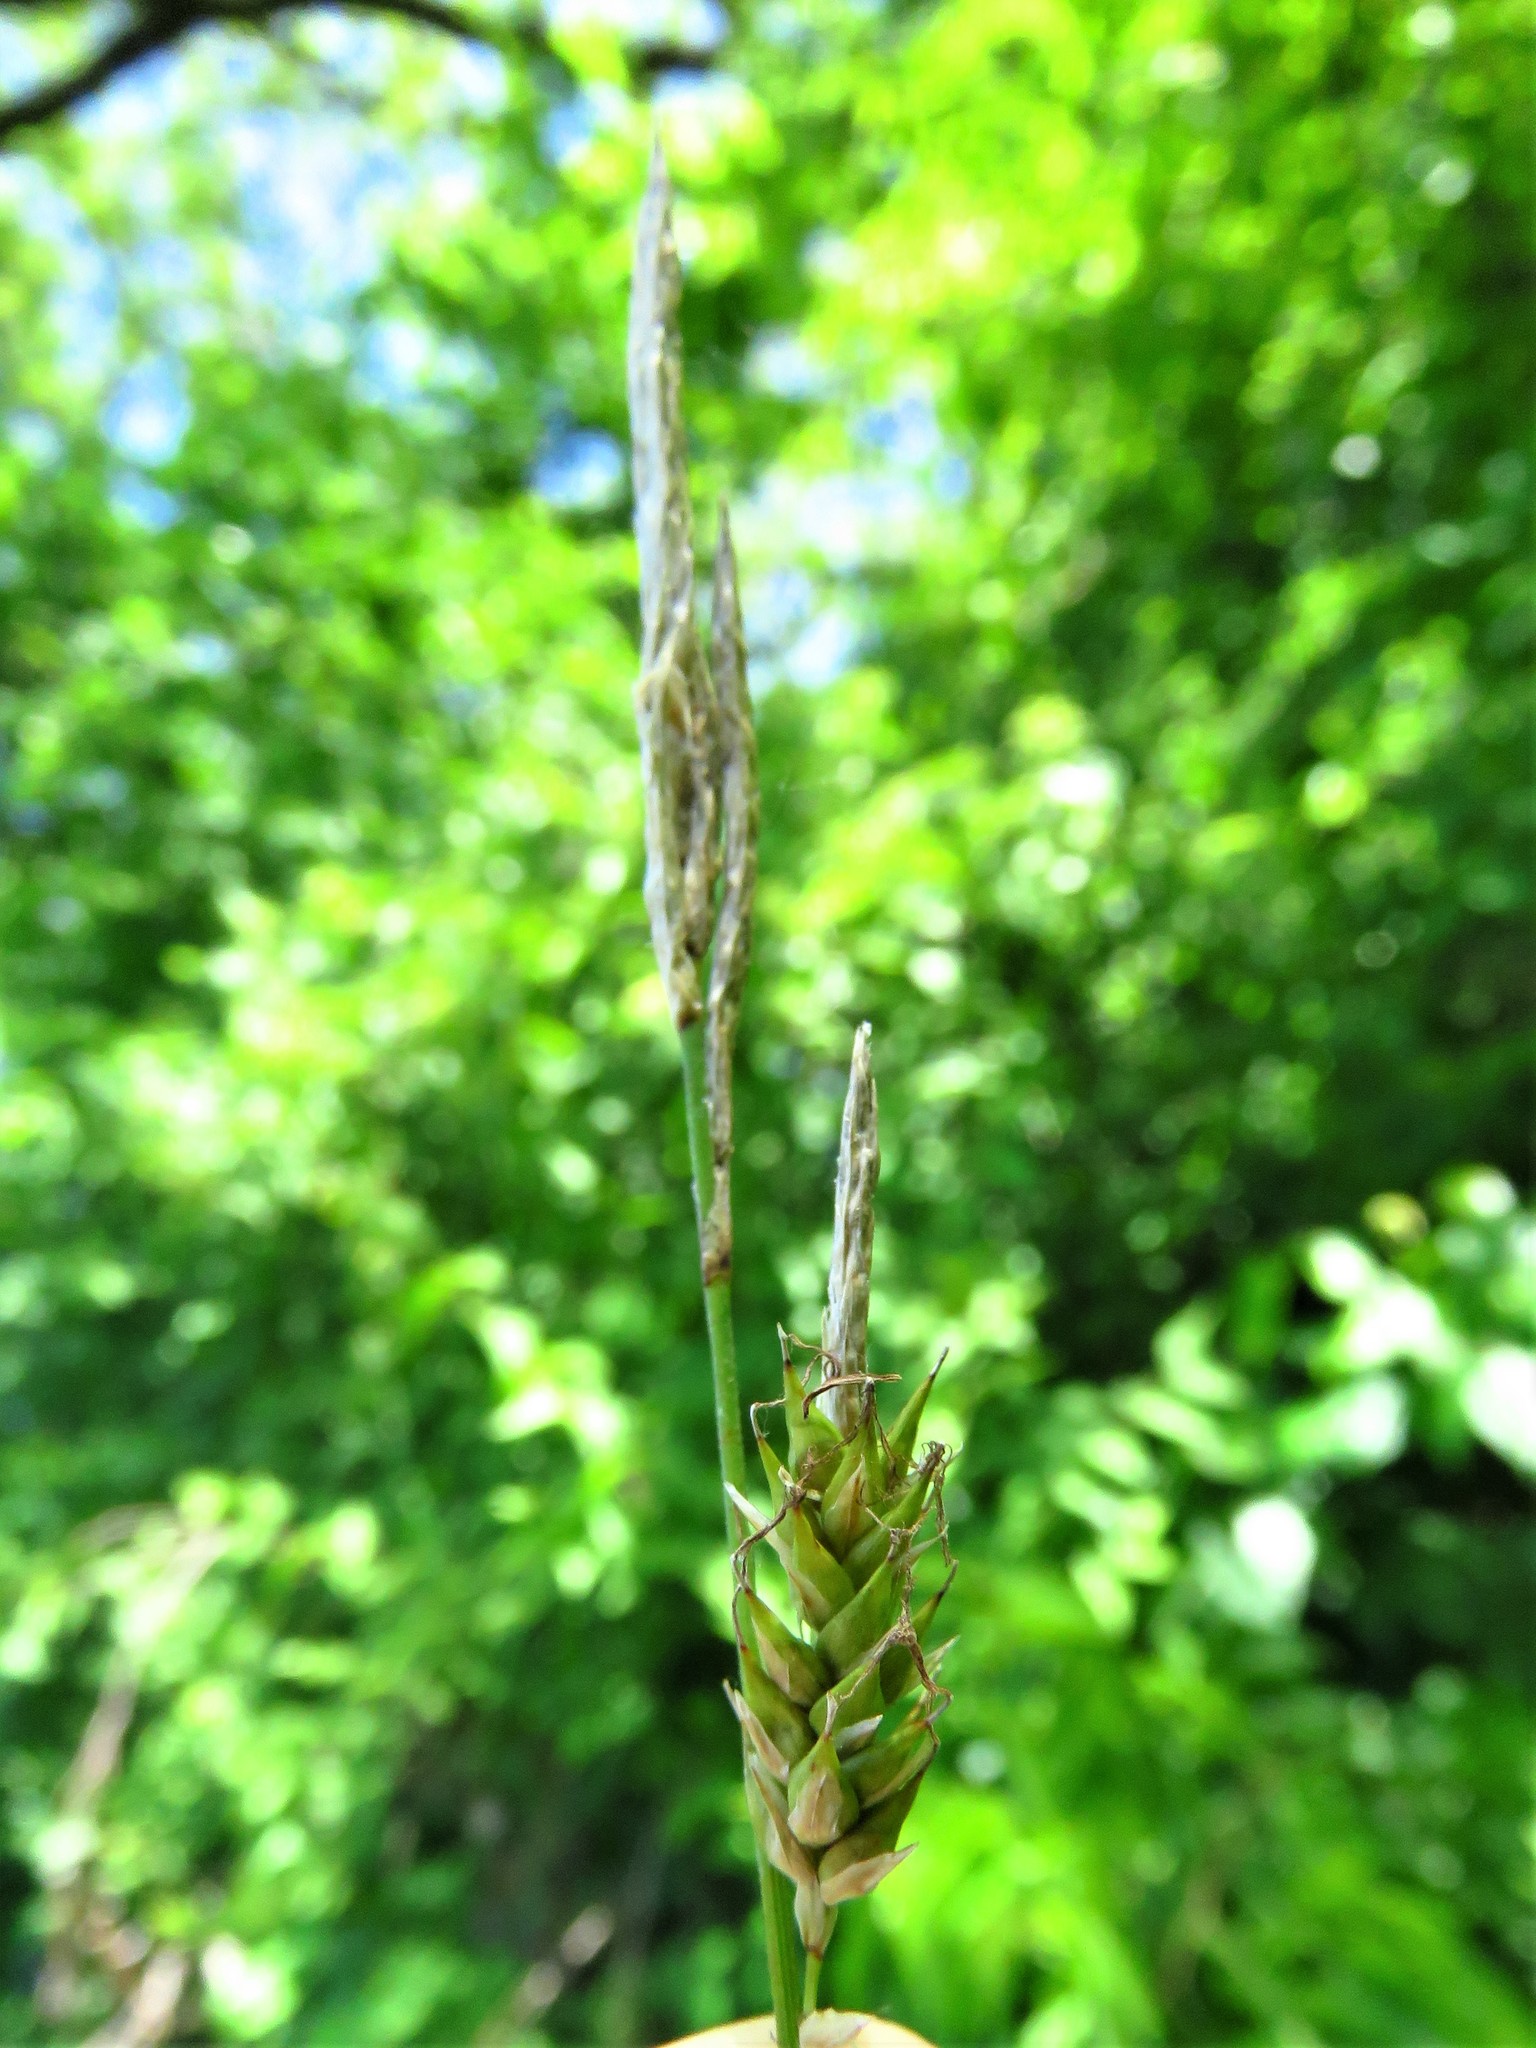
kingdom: Plantae
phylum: Tracheophyta
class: Liliopsida
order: Poales
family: Cyperaceae
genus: Carex
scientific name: Carex cherokeensis
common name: Cherokee sedge
